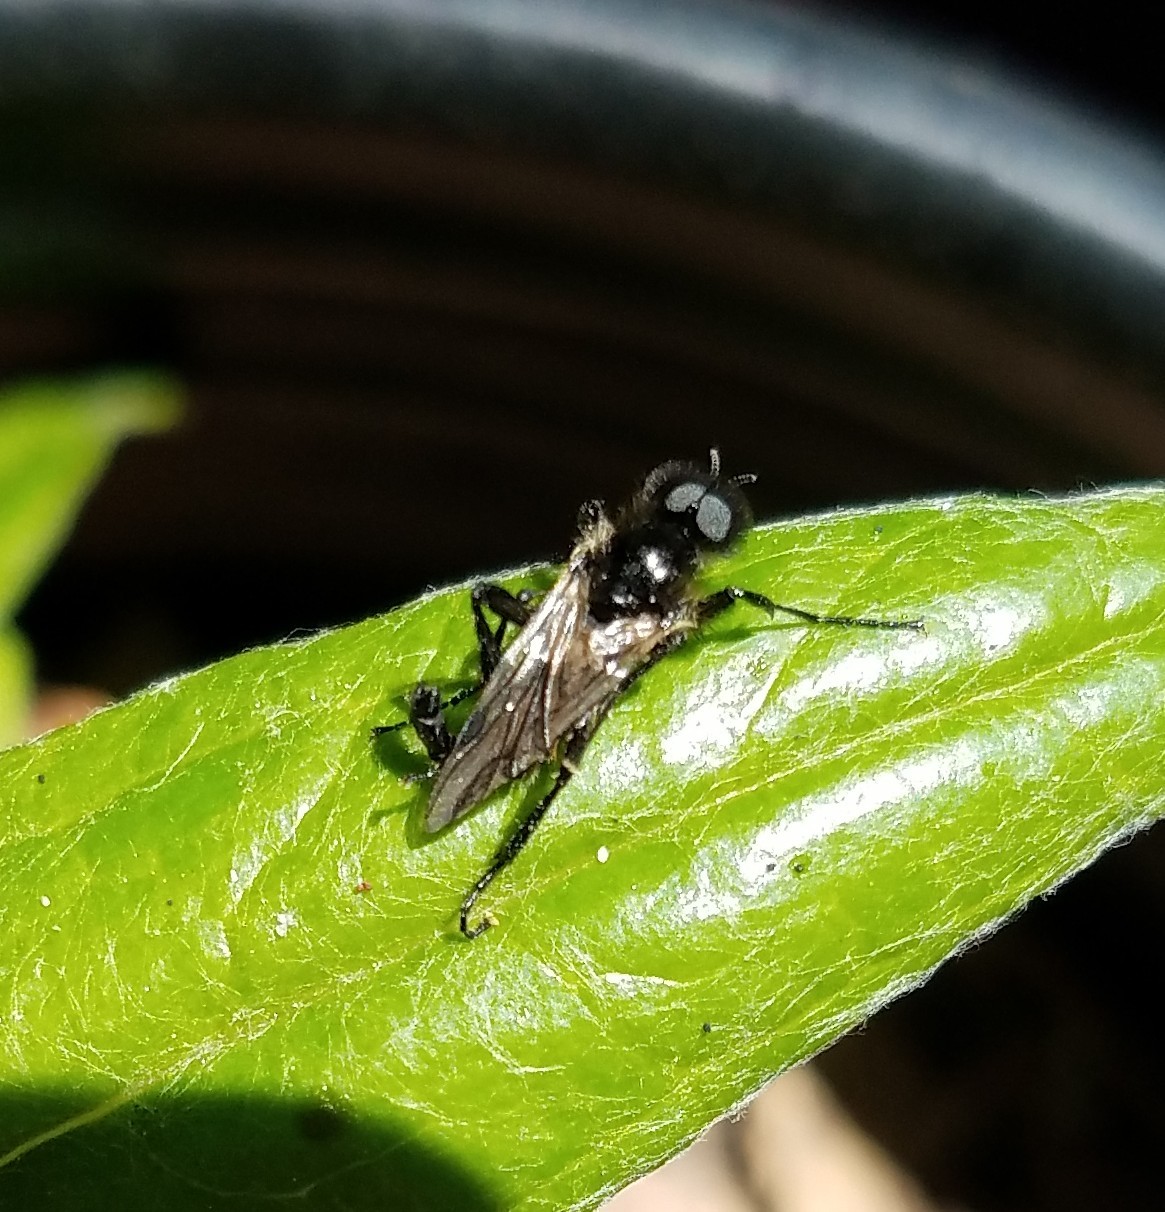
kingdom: Animalia
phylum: Arthropoda
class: Insecta
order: Diptera
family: Bibionidae
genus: Bibio
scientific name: Bibio albipennis
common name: White-winged march fly
